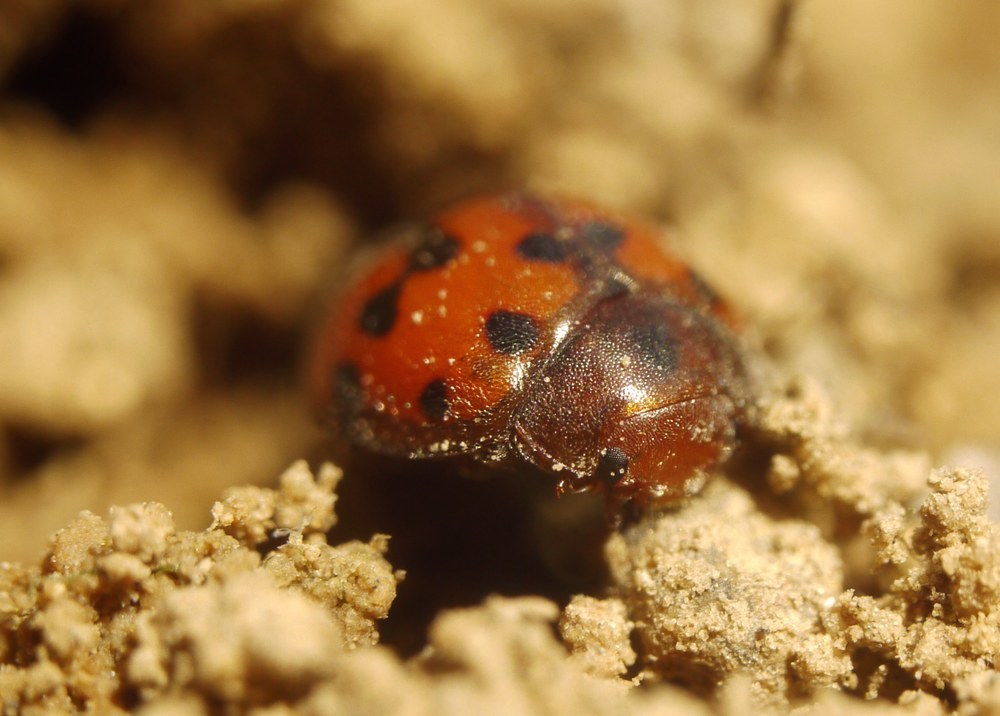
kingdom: Animalia
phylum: Arthropoda
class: Insecta
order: Coleoptera
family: Coccinellidae
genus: Subcoccinella
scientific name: Subcoccinella vigintiquatuorpunctata
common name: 24-spot ladybird
